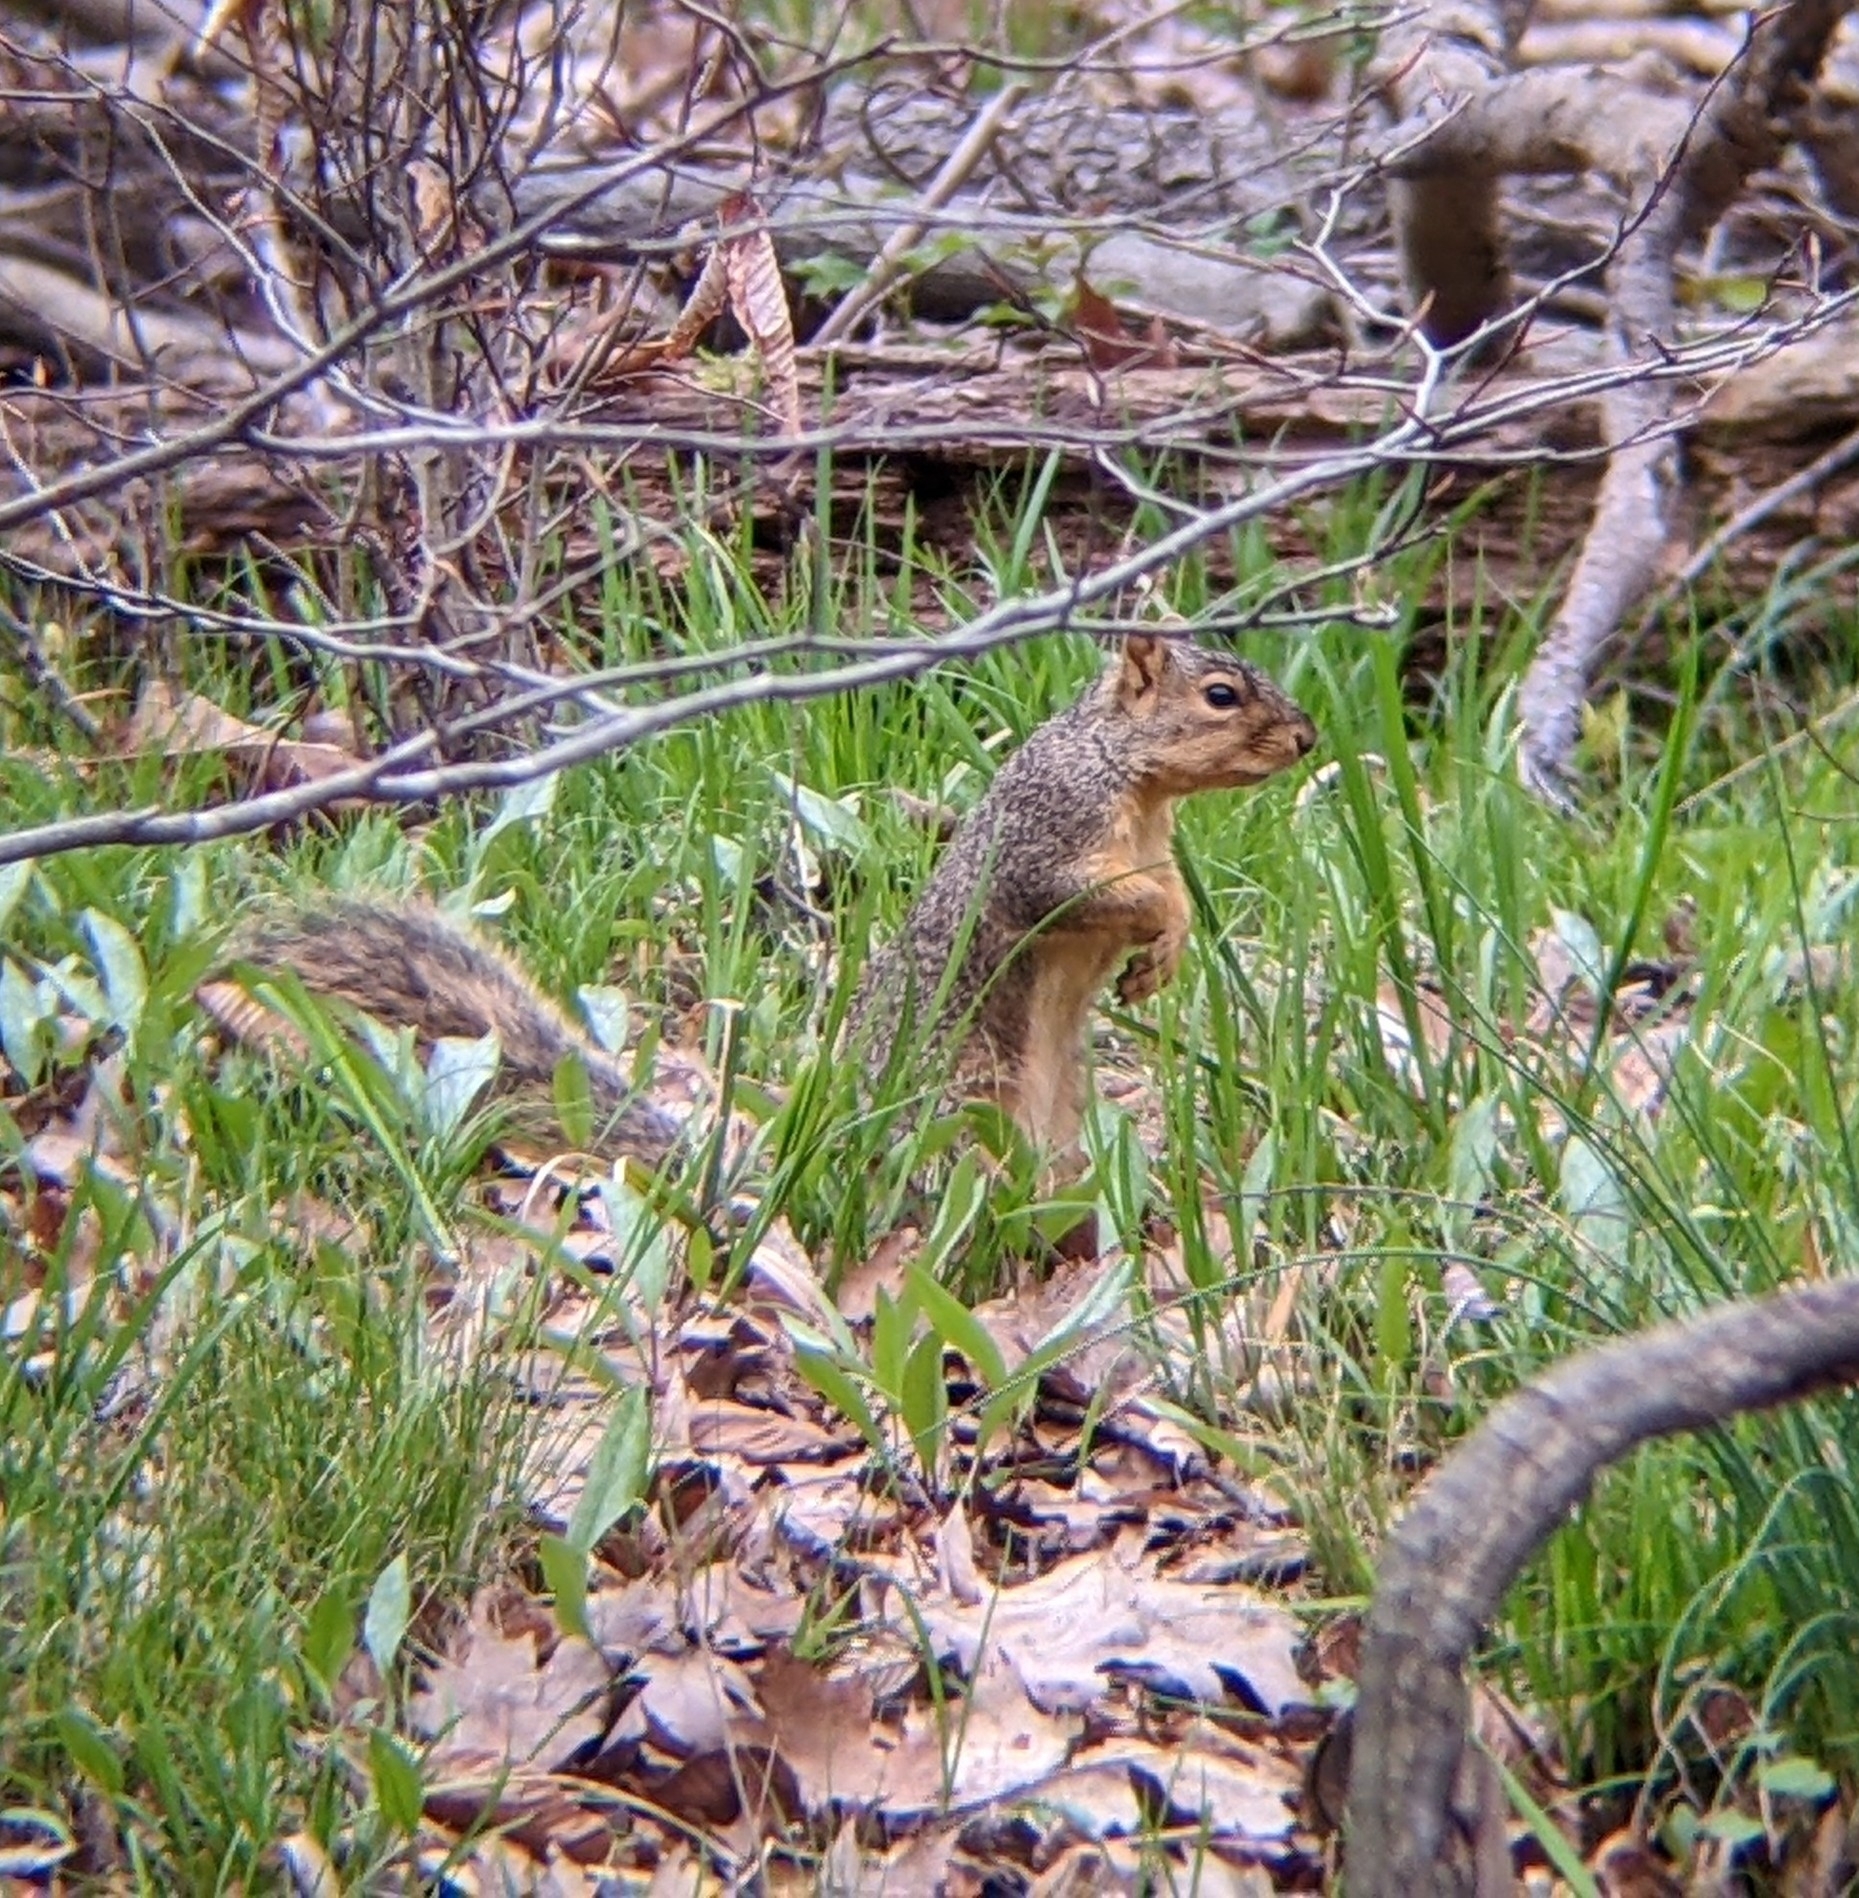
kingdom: Animalia
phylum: Chordata
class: Mammalia
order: Rodentia
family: Sciuridae
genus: Sciurus
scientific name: Sciurus niger
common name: Fox squirrel
